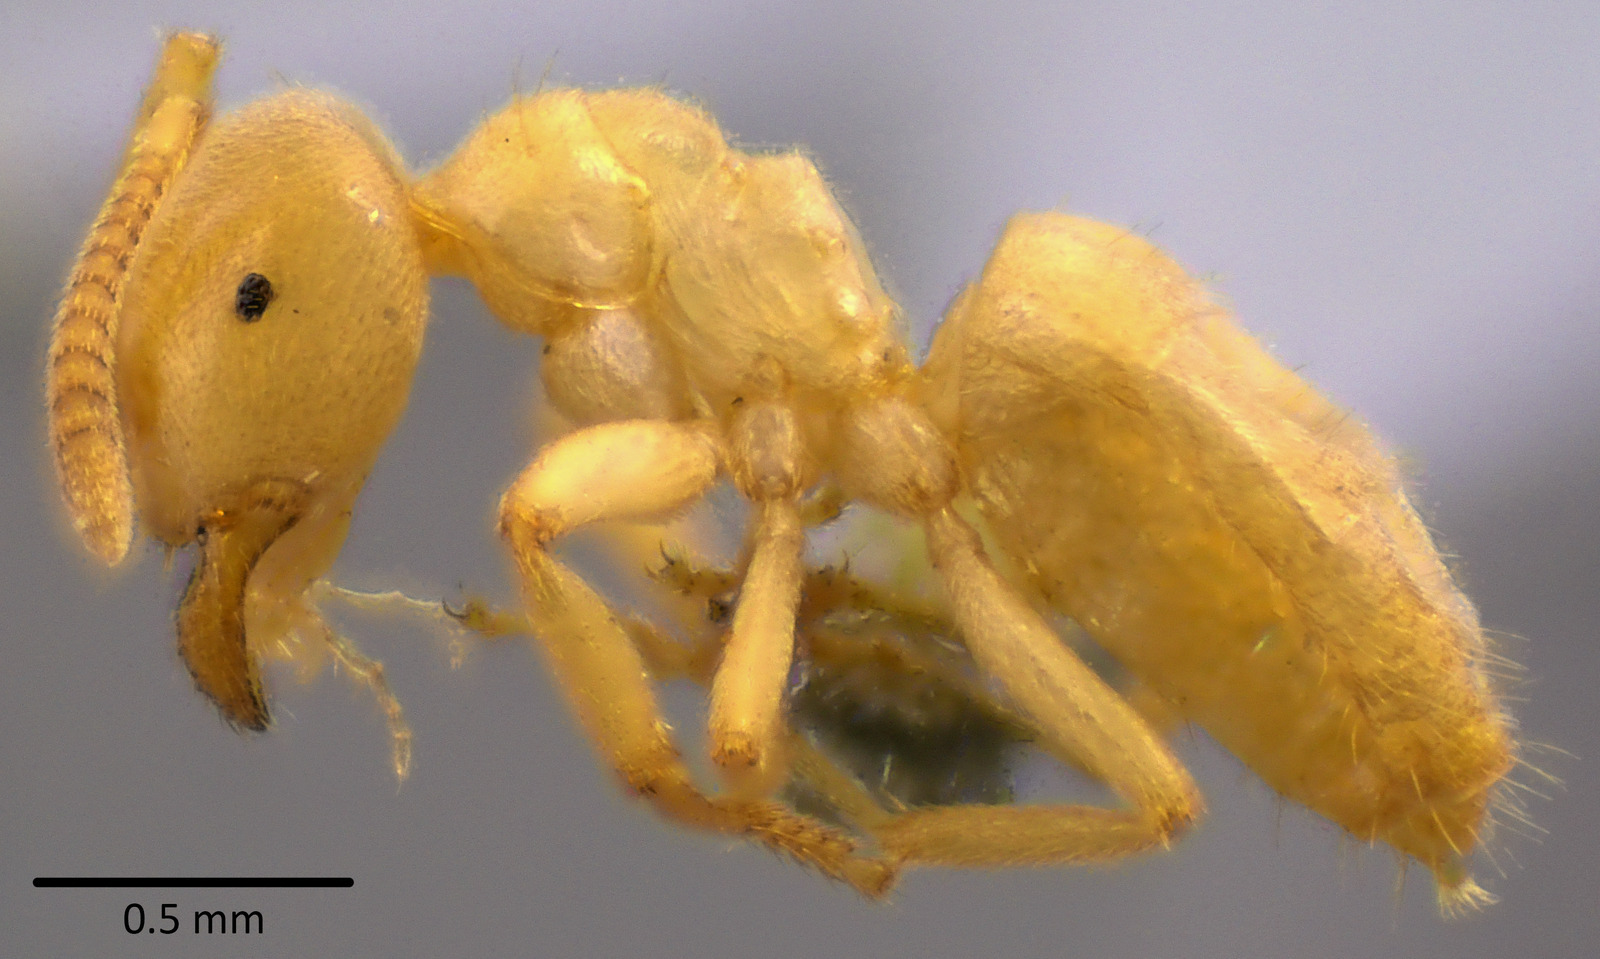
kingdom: Animalia
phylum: Arthropoda
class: Insecta
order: Hymenoptera
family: Formicidae
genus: Lasius
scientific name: Lasius nearcticus
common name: New world fuzzy ant
